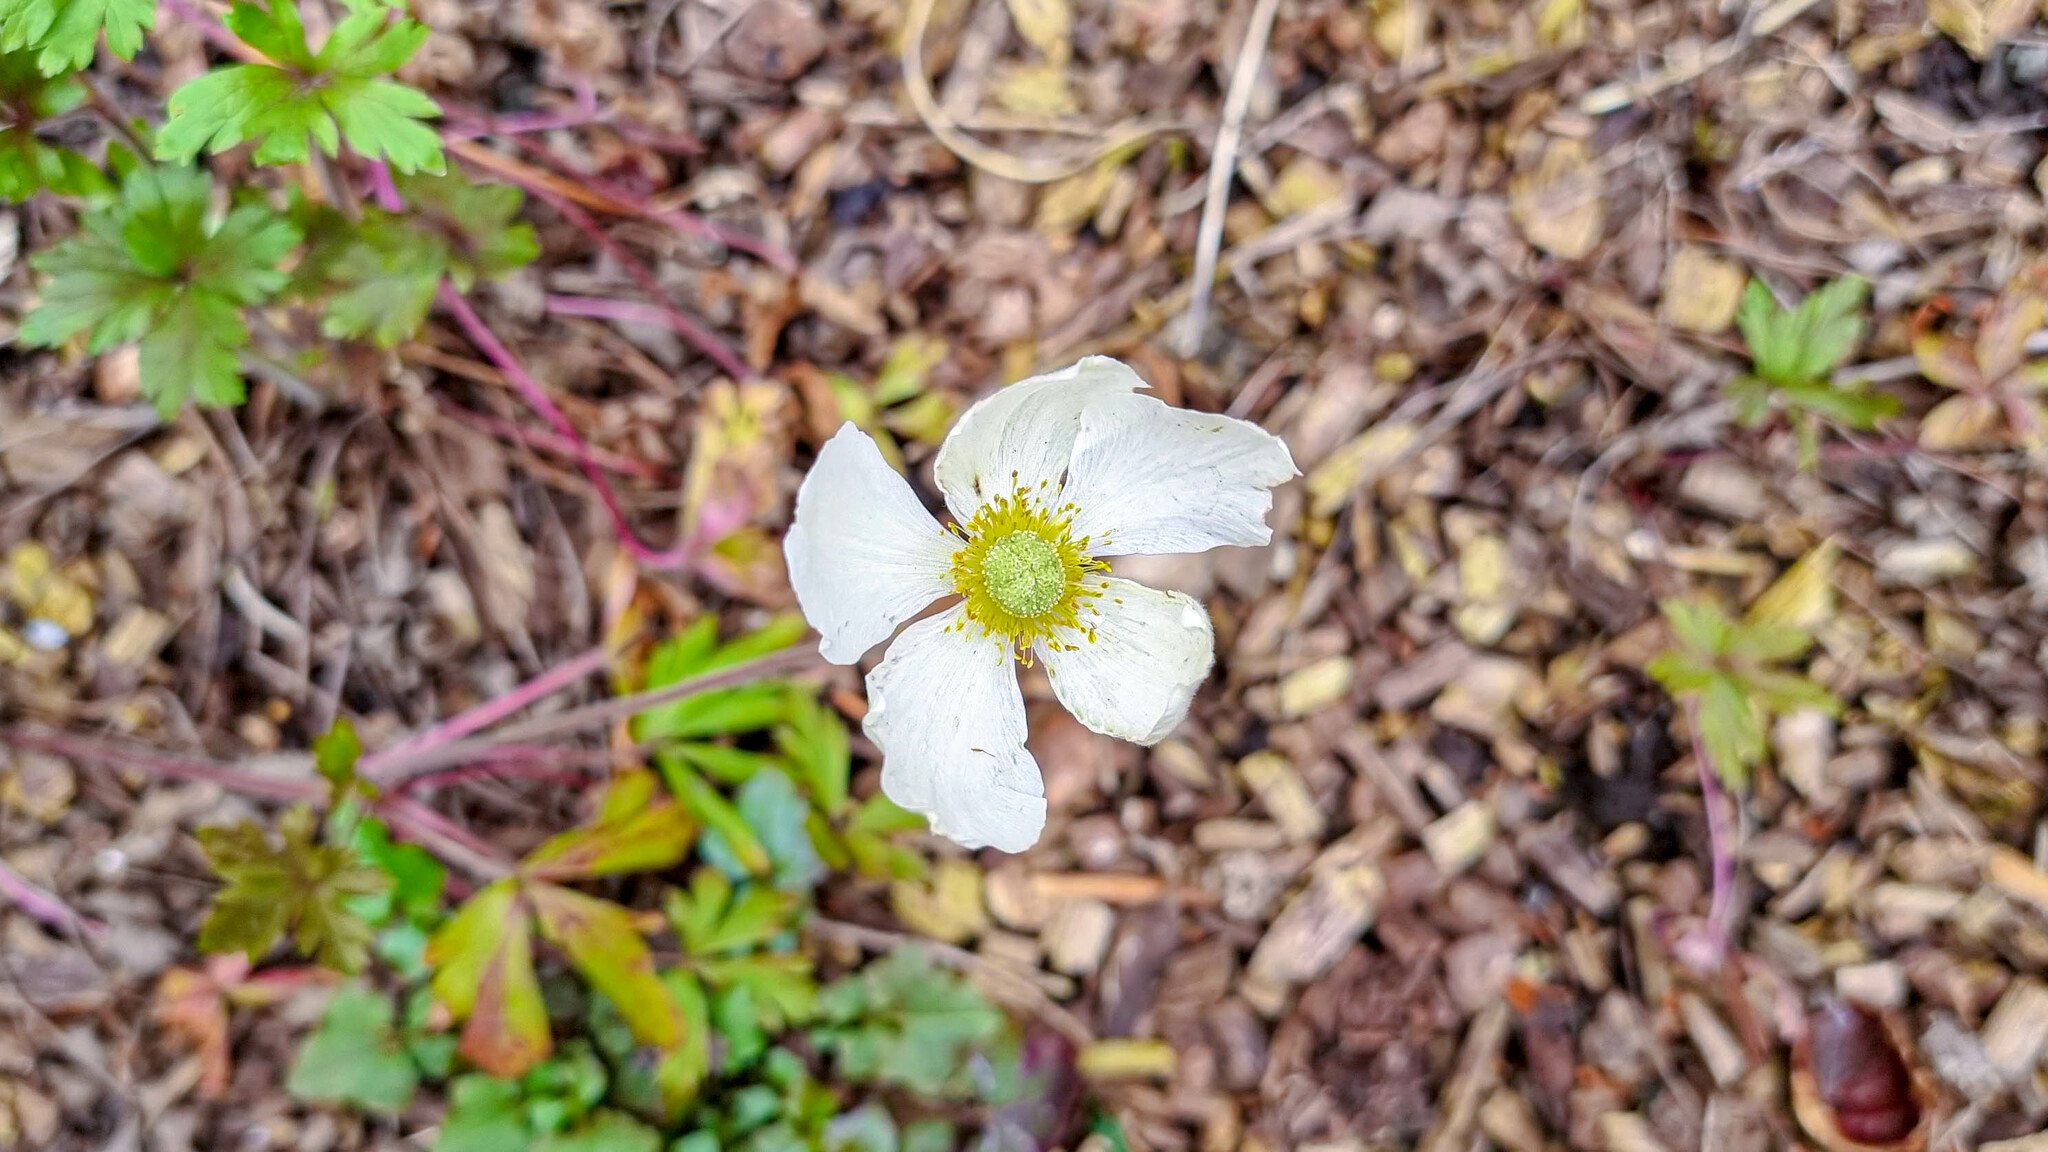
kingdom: Plantae
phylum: Tracheophyta
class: Magnoliopsida
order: Ranunculales
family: Ranunculaceae
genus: Anemone
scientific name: Anemone sylvestris
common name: Snowdrop anemone
